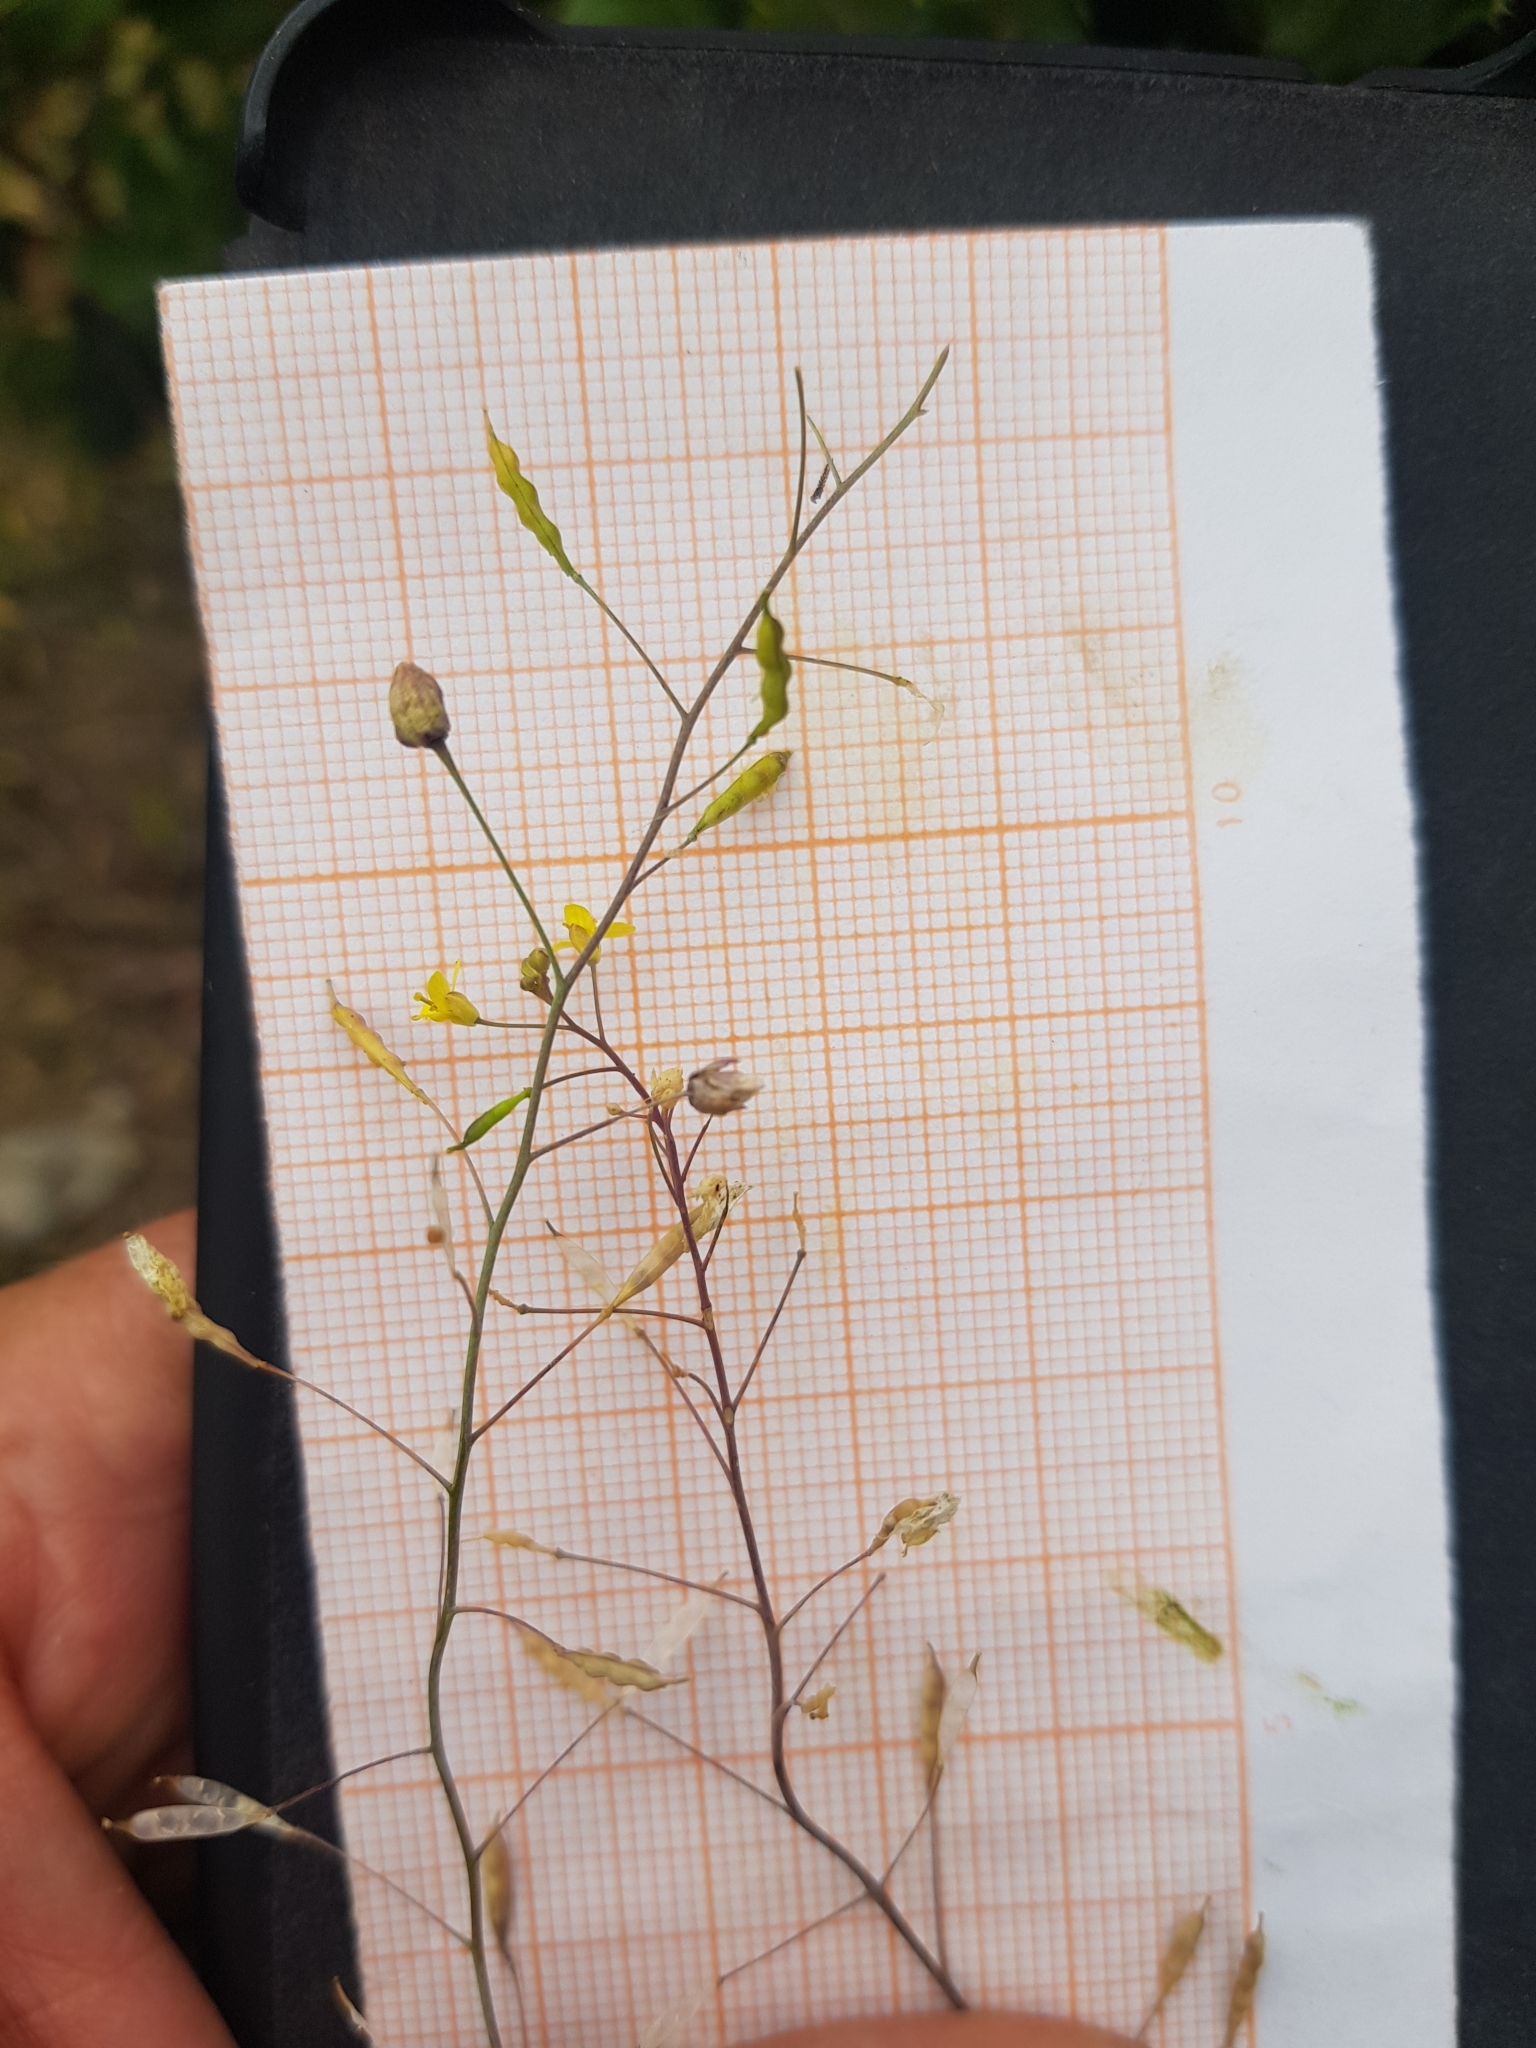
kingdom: Plantae
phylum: Tracheophyta
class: Magnoliopsida
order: Brassicales
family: Brassicaceae
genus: Brassica
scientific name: Brassica souliei
